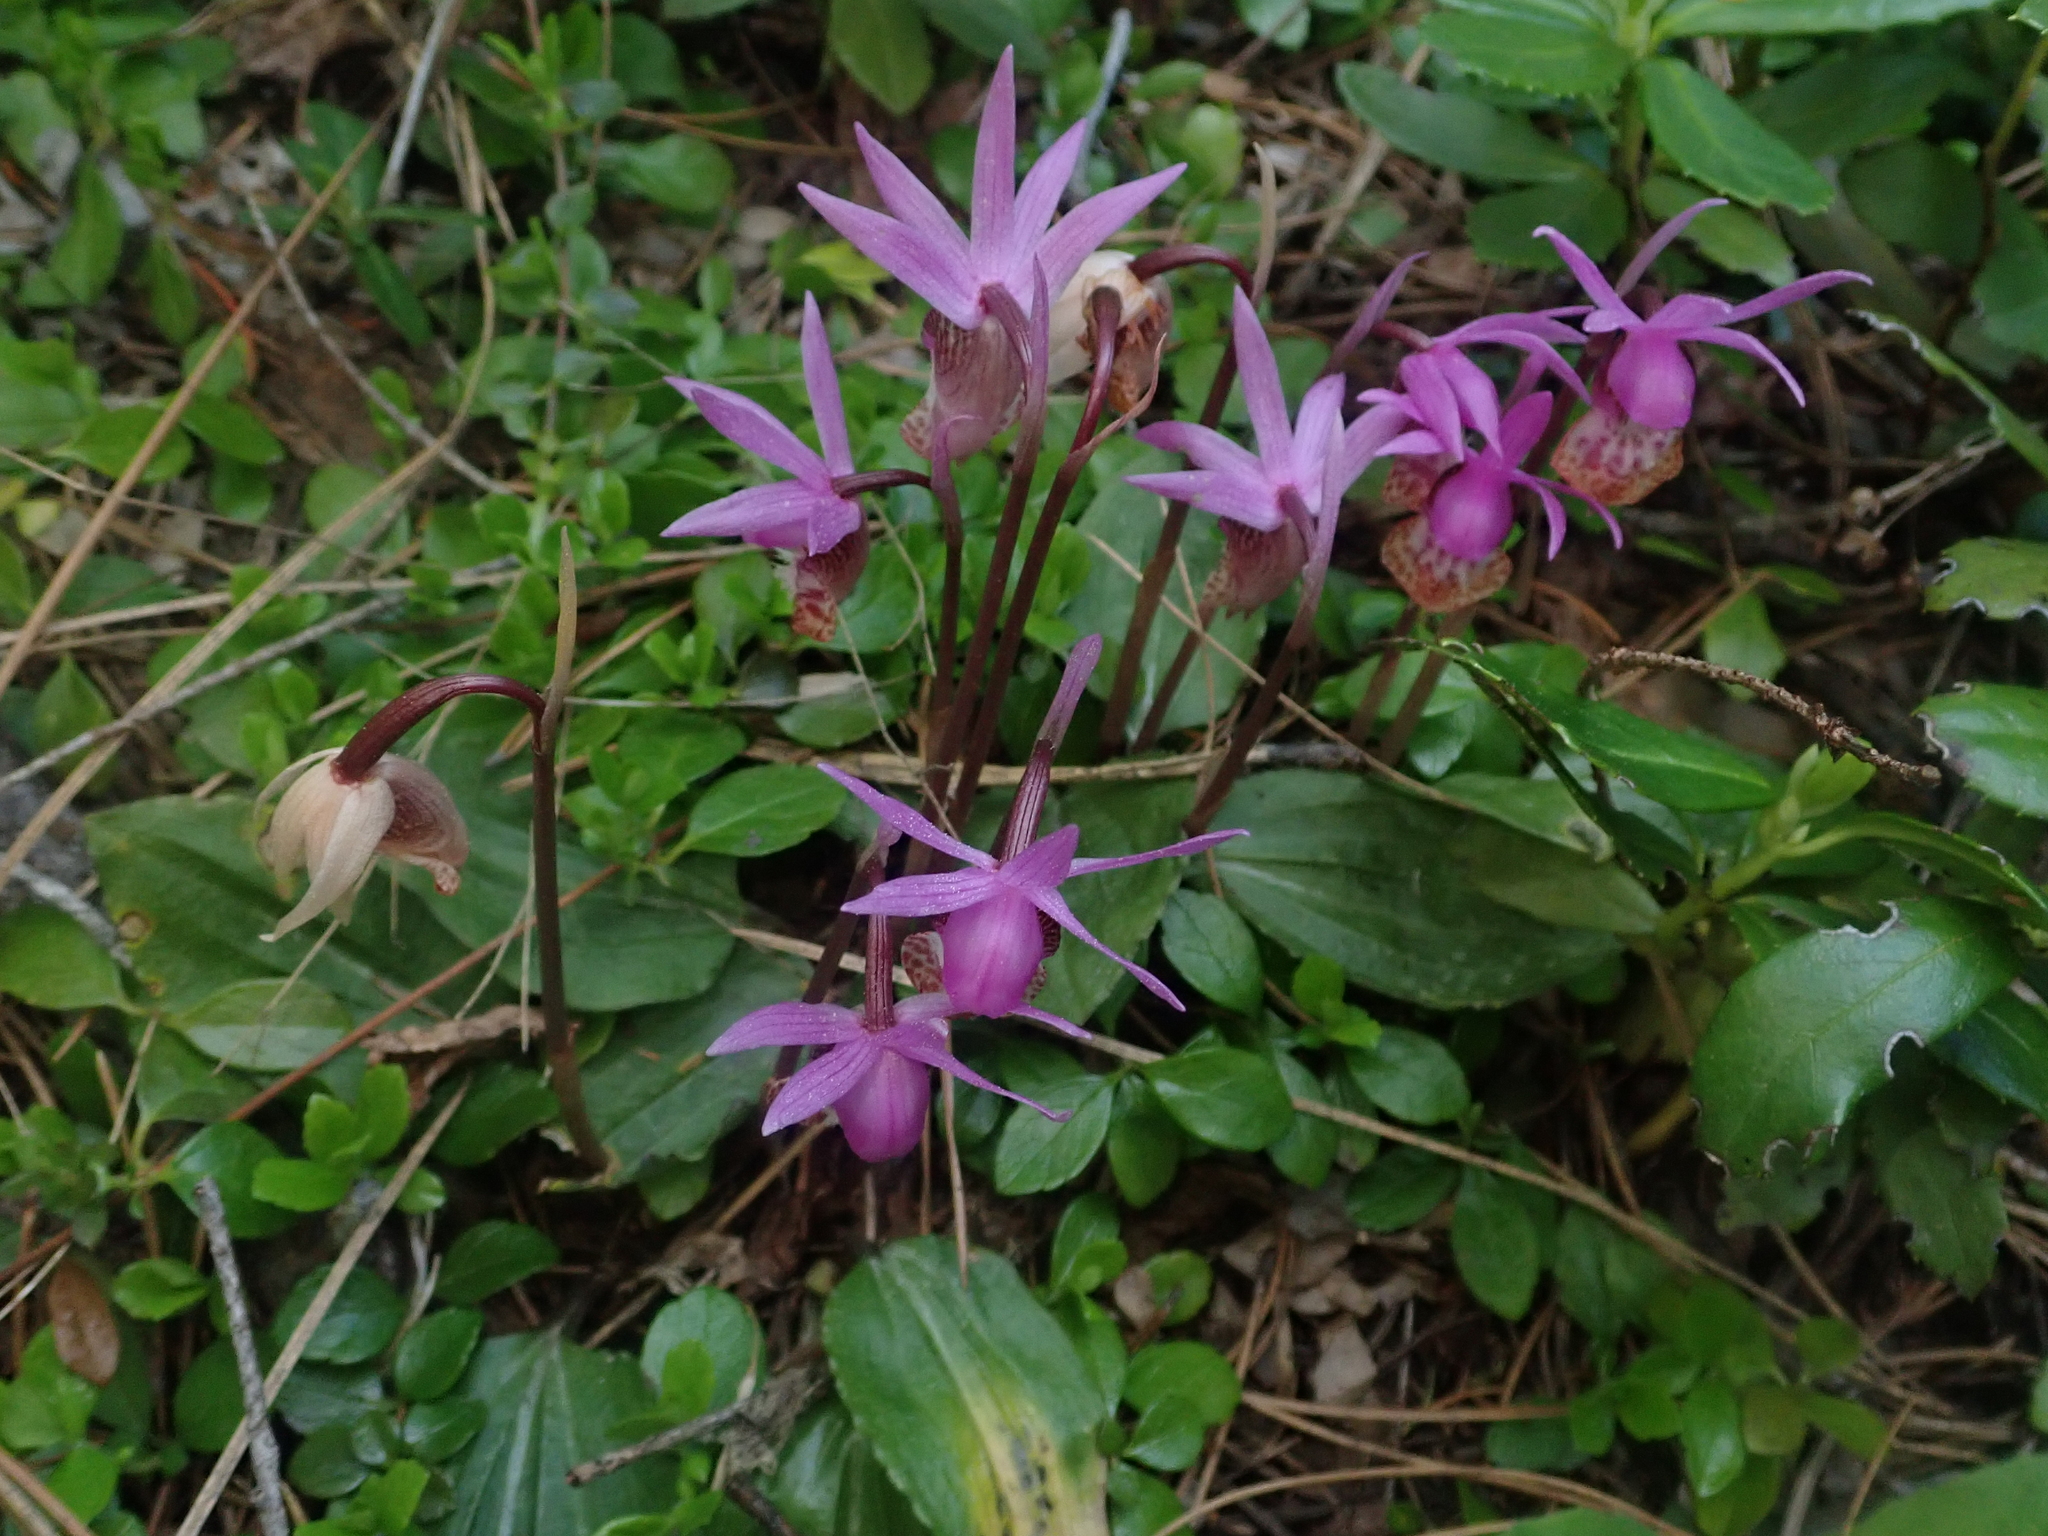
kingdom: Plantae
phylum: Tracheophyta
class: Liliopsida
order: Asparagales
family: Orchidaceae
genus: Calypso
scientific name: Calypso bulbosa
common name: Calypso
